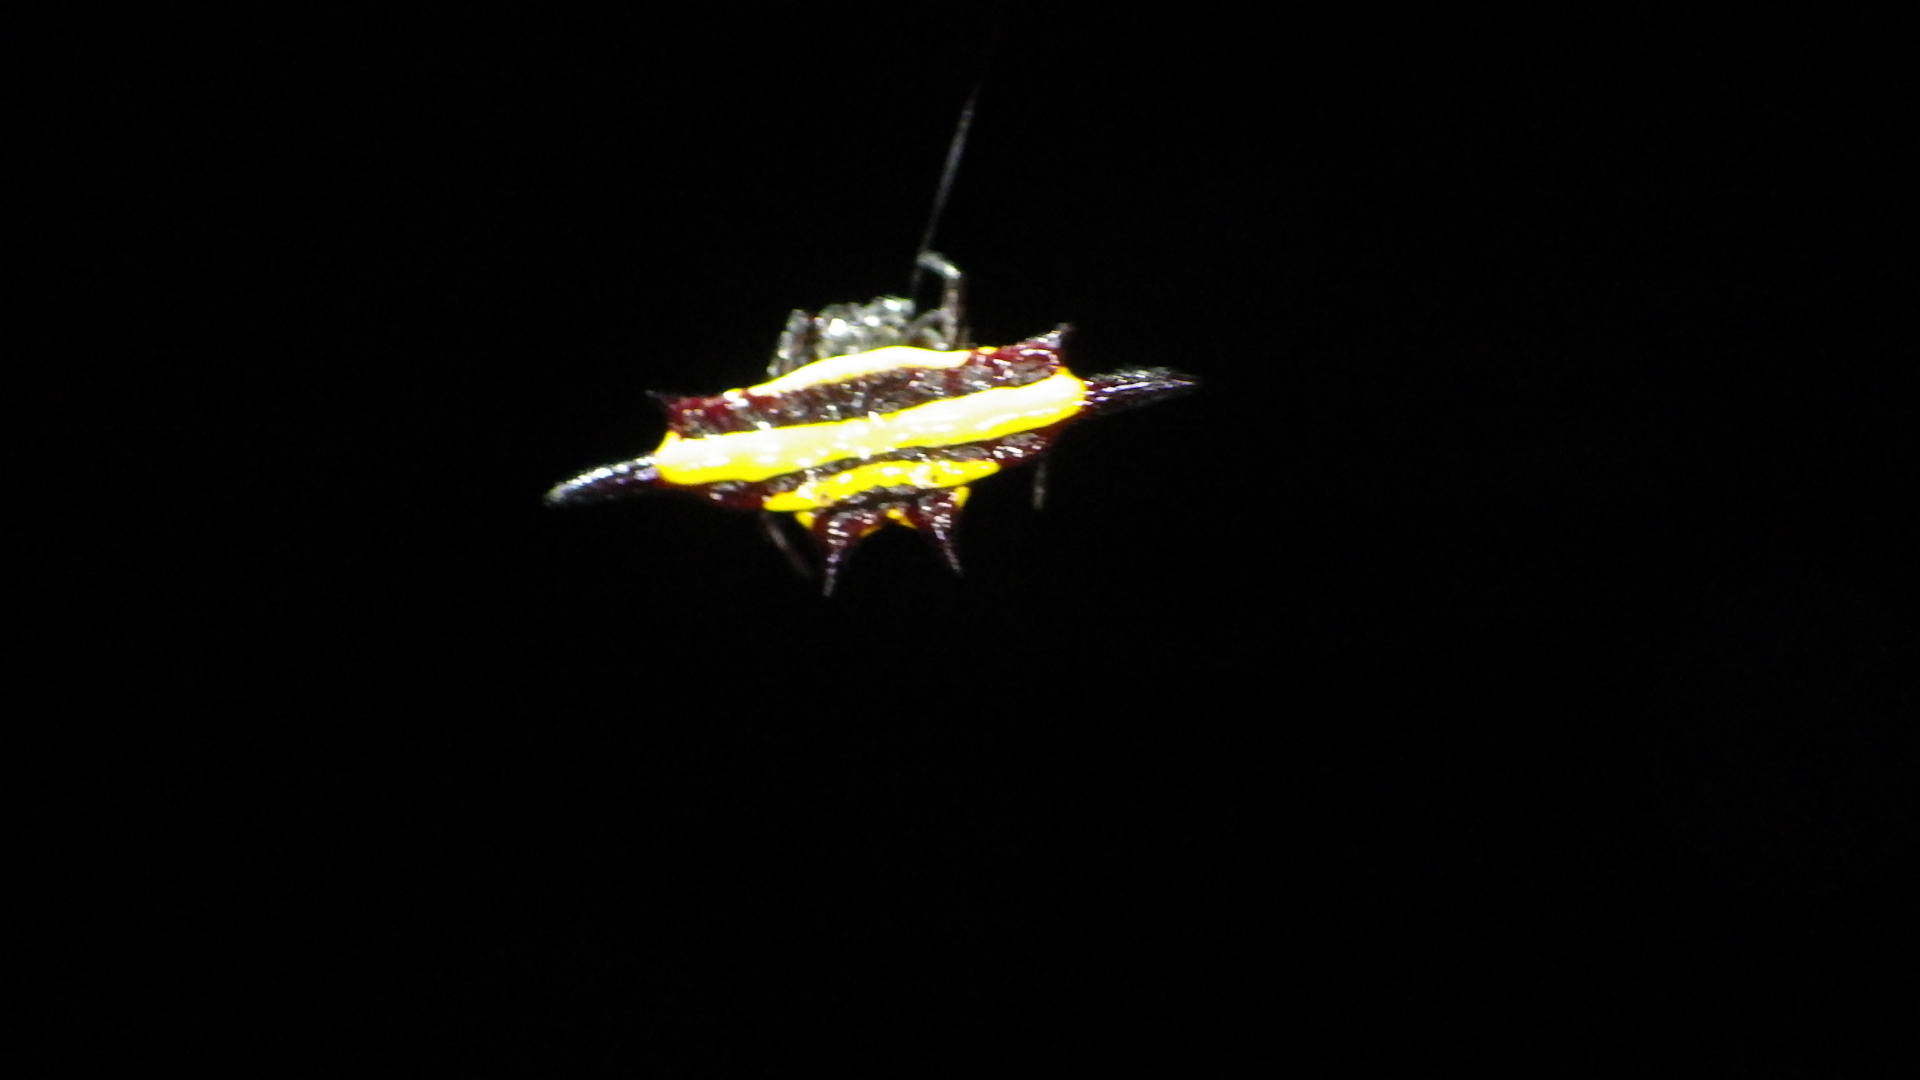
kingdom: Animalia
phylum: Arthropoda
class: Arachnida
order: Araneae
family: Araneidae
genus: Gasteracantha
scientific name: Gasteracantha fornicata
